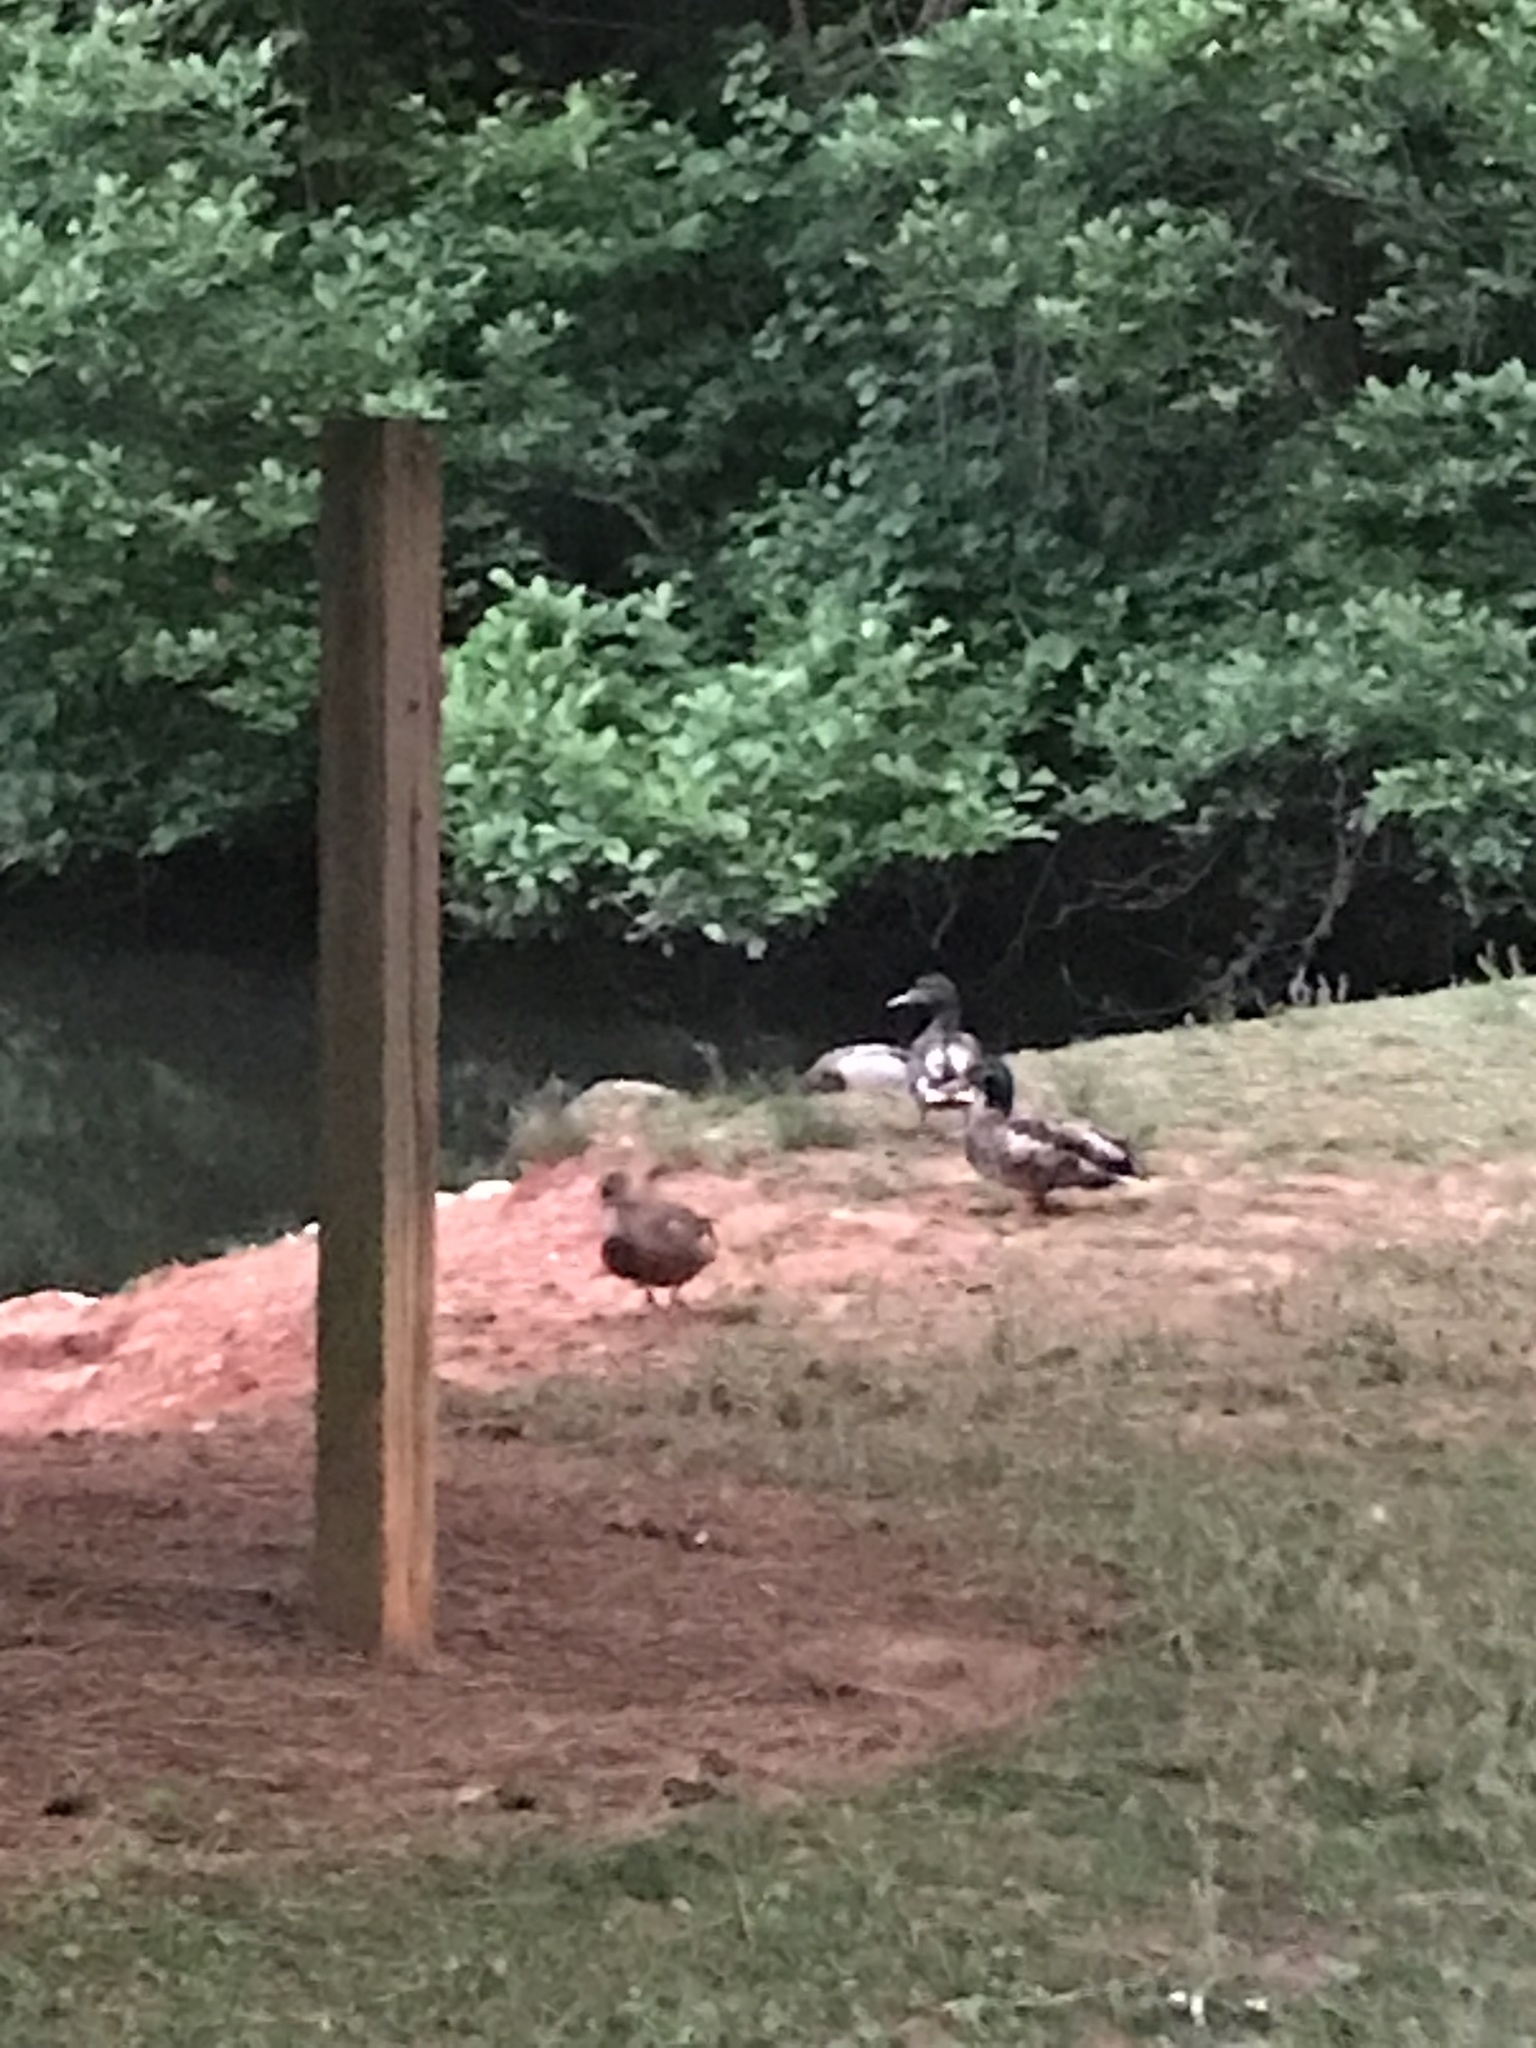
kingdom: Animalia
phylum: Chordata
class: Aves
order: Anseriformes
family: Anatidae
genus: Anas
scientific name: Anas platyrhynchos
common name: Mallard
